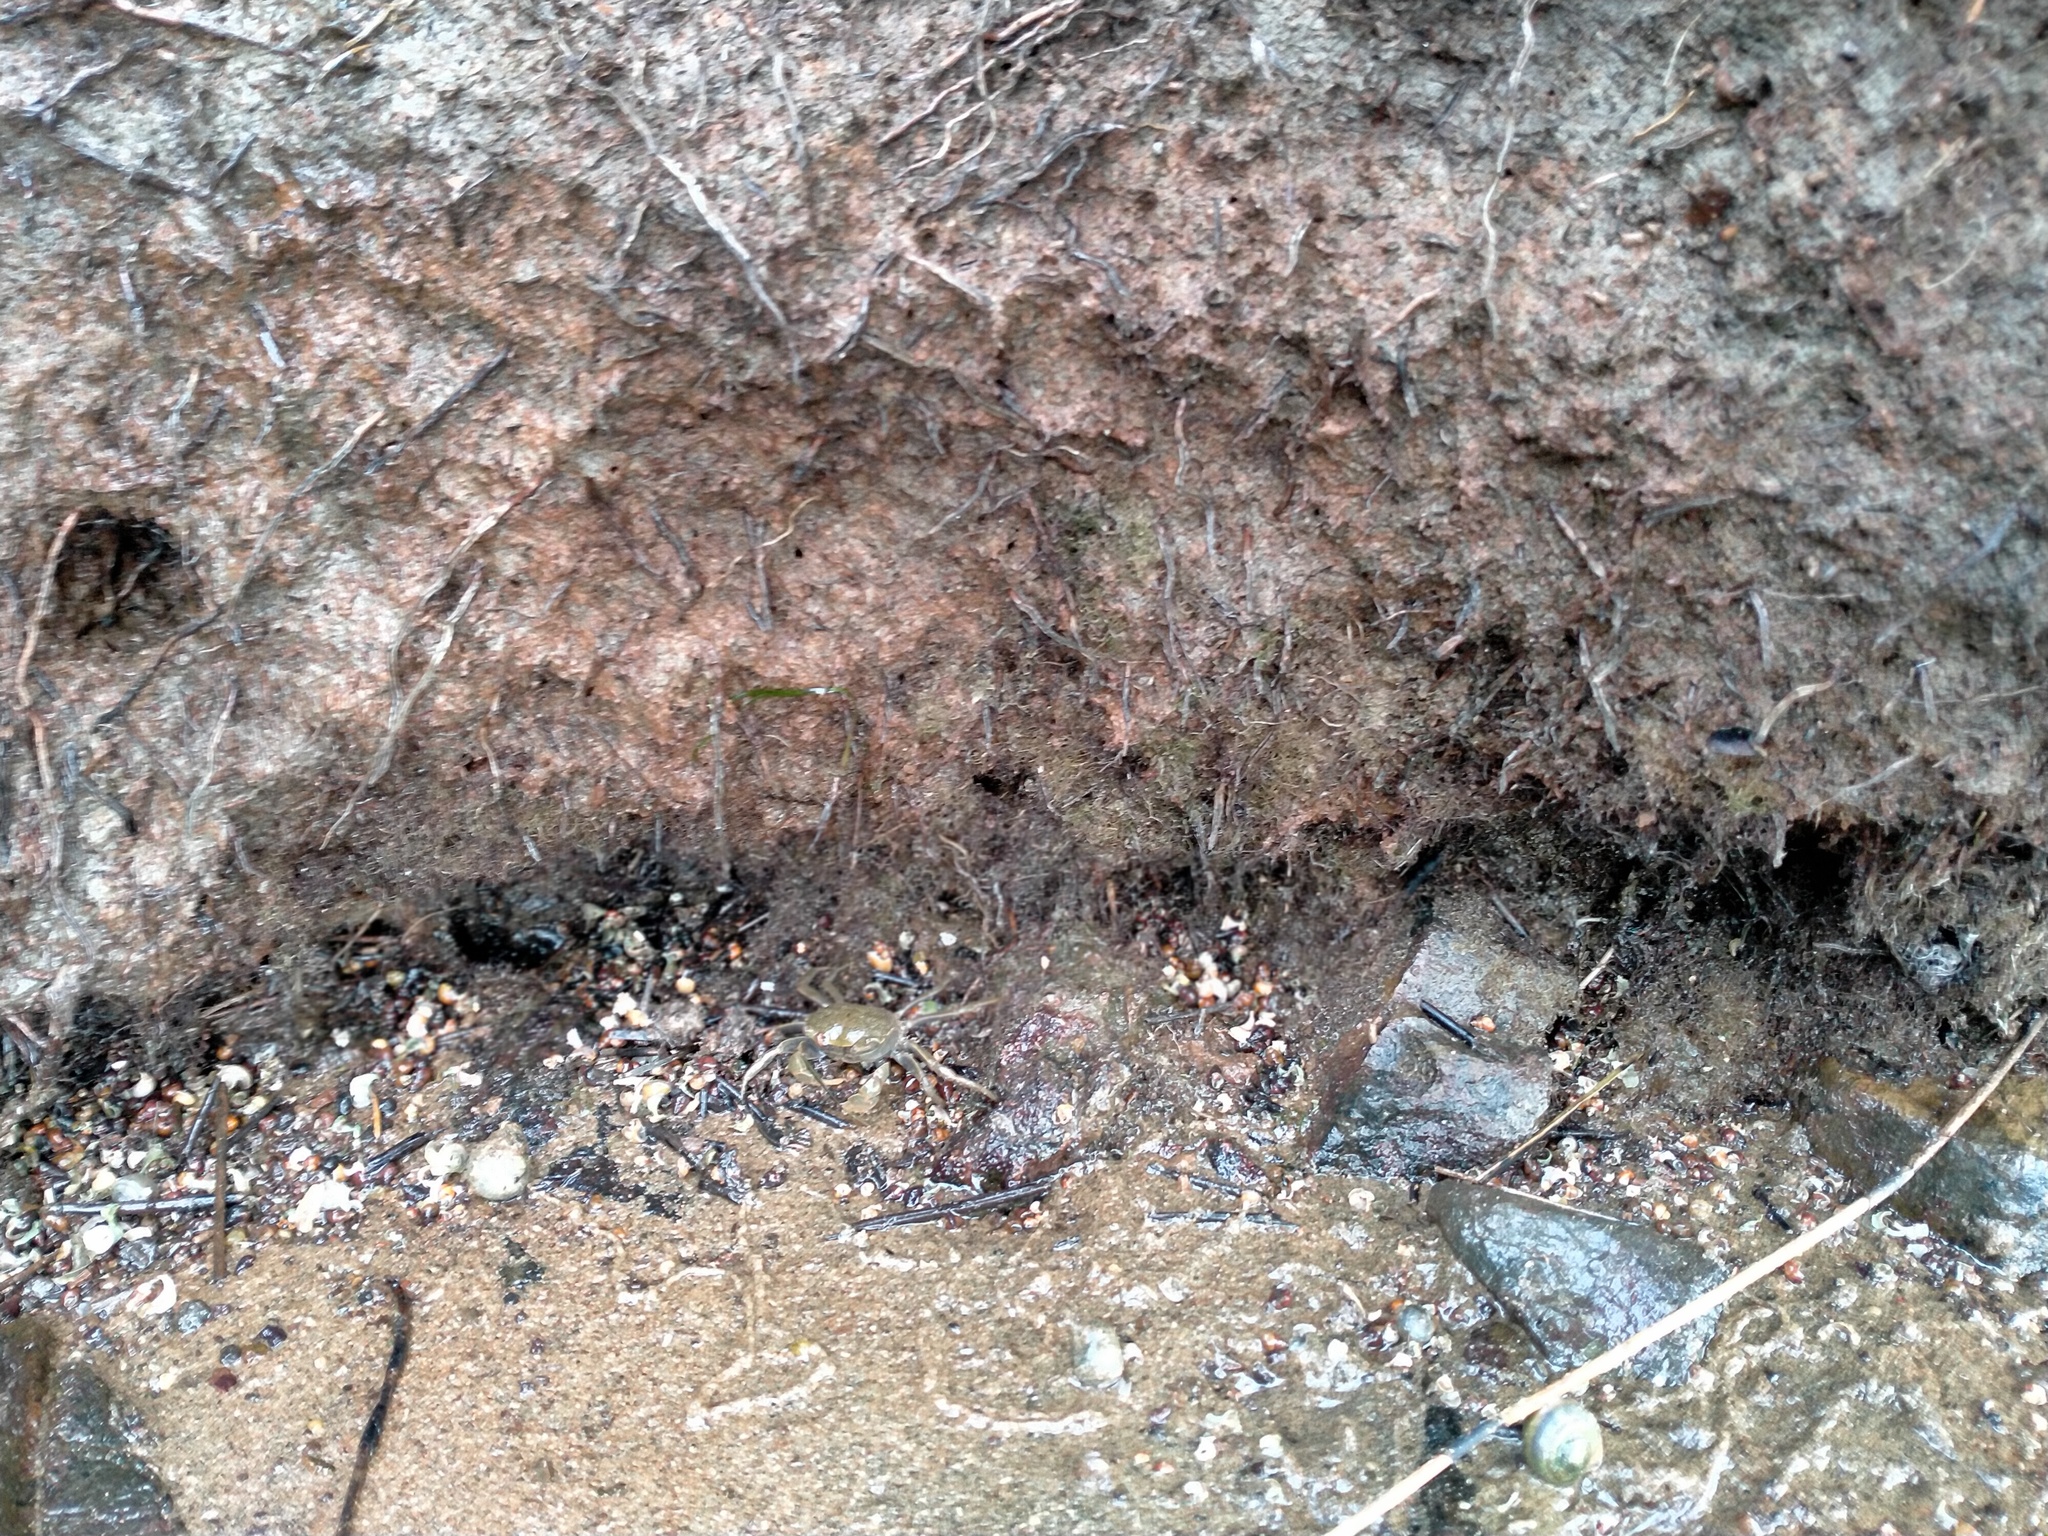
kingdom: Animalia
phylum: Arthropoda
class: Malacostraca
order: Decapoda
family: Varunidae
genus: Austrohelice
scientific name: Austrohelice crassa
